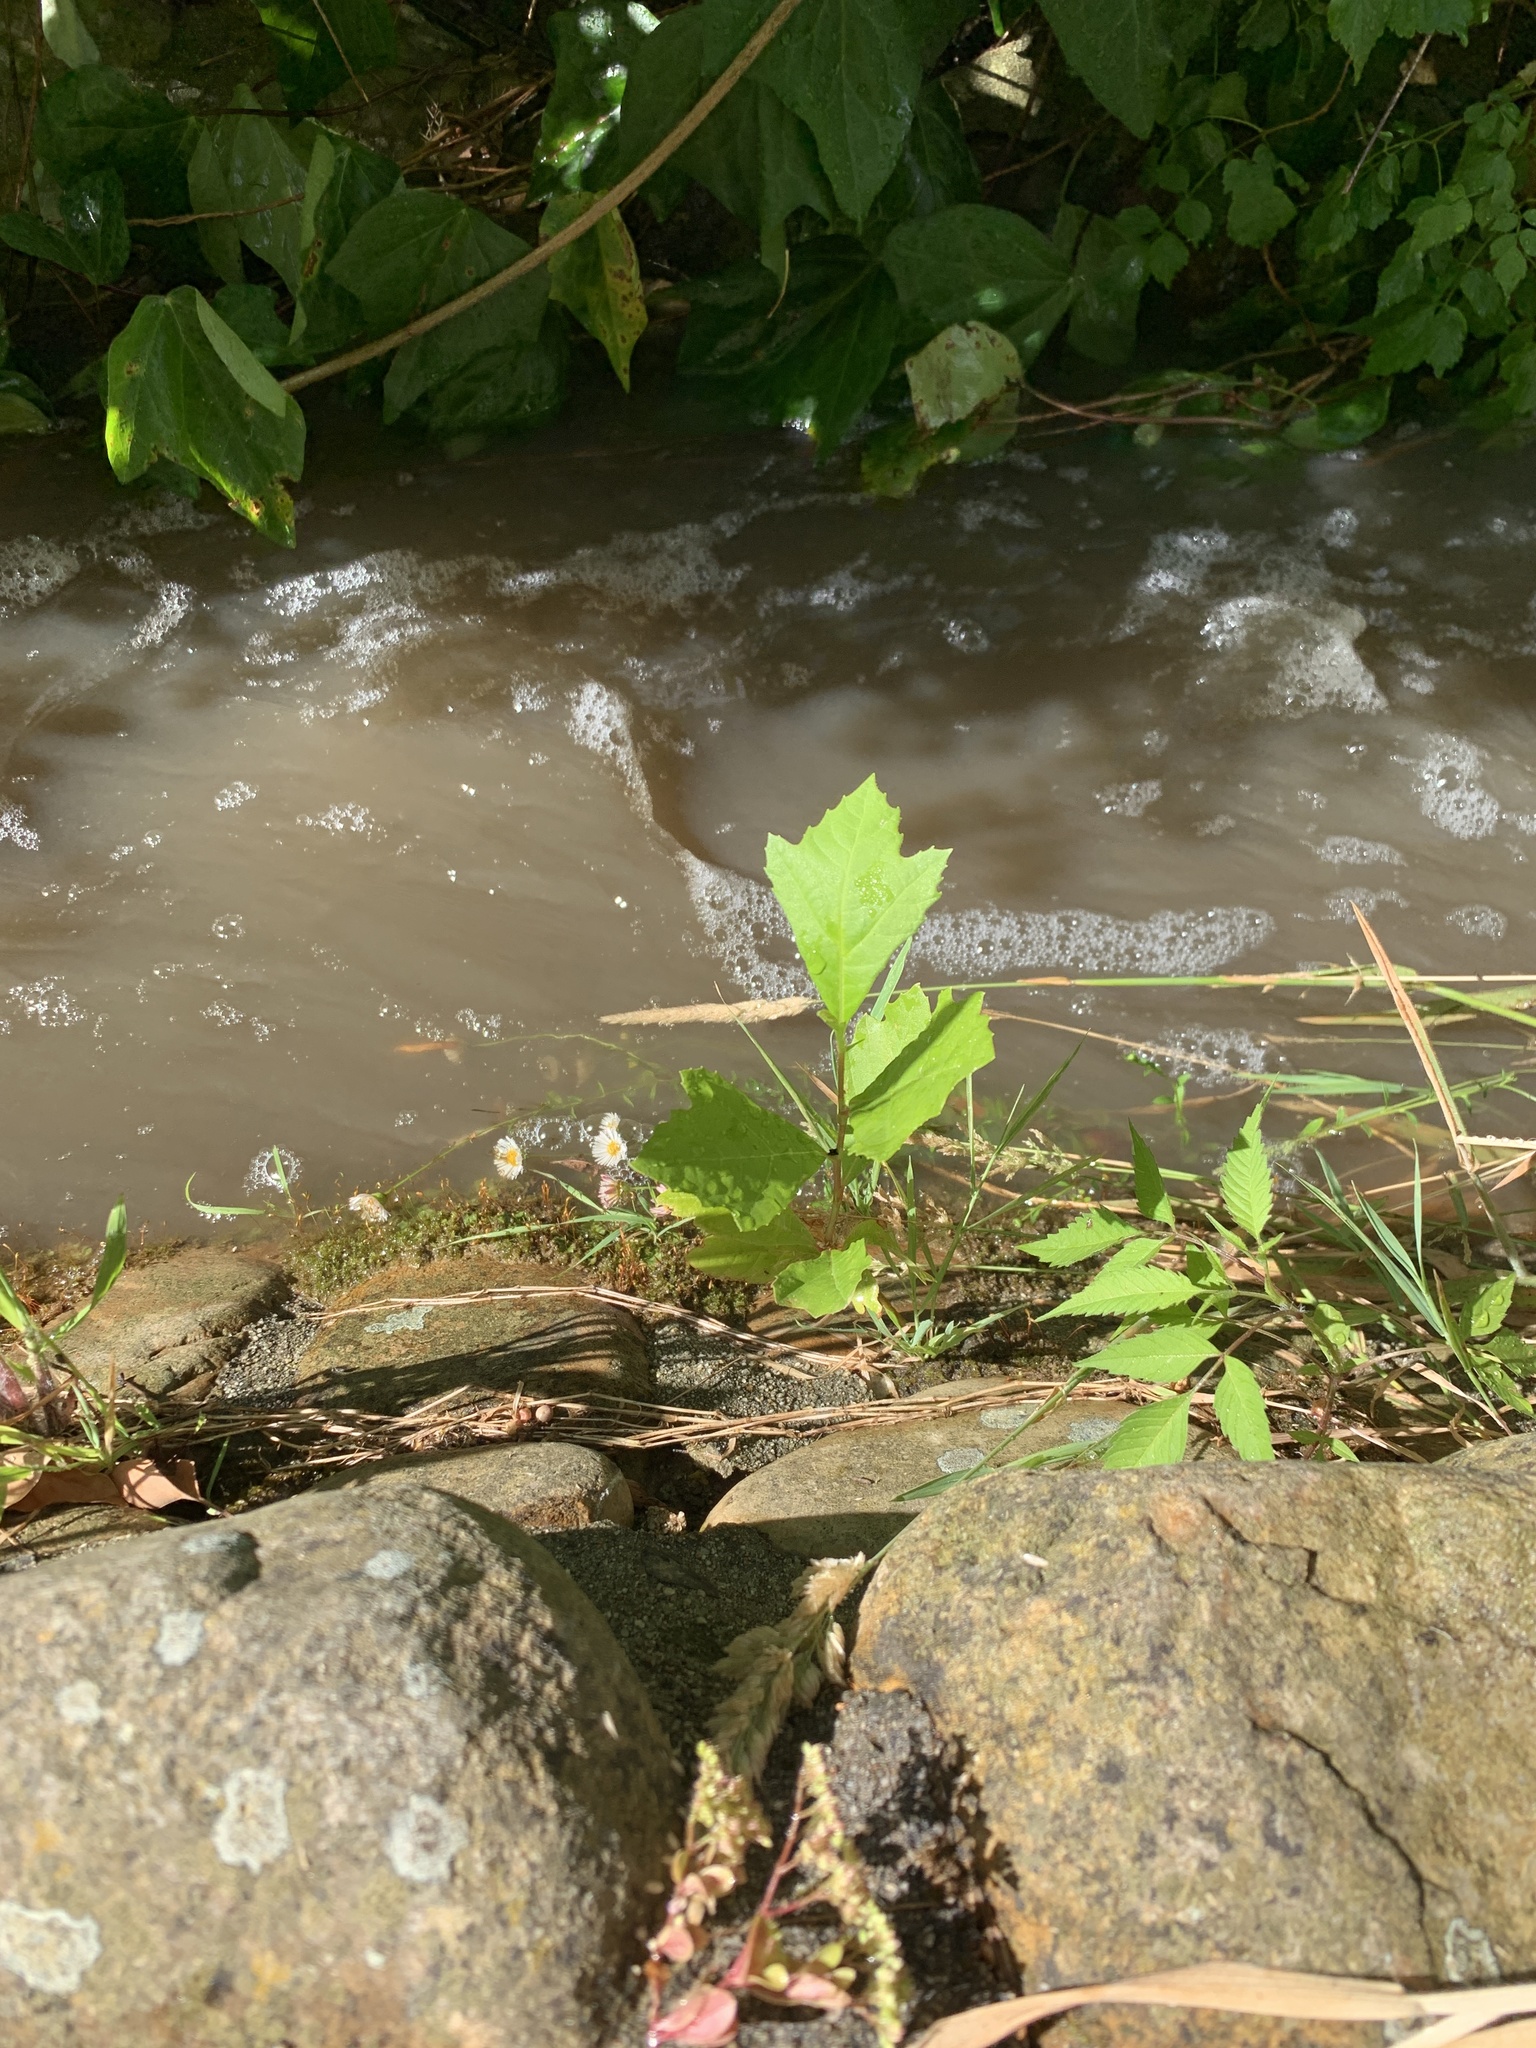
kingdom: Plantae
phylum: Tracheophyta
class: Magnoliopsida
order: Proteales
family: Platanaceae
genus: Platanus
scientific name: Platanus hispanica
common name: London plane
